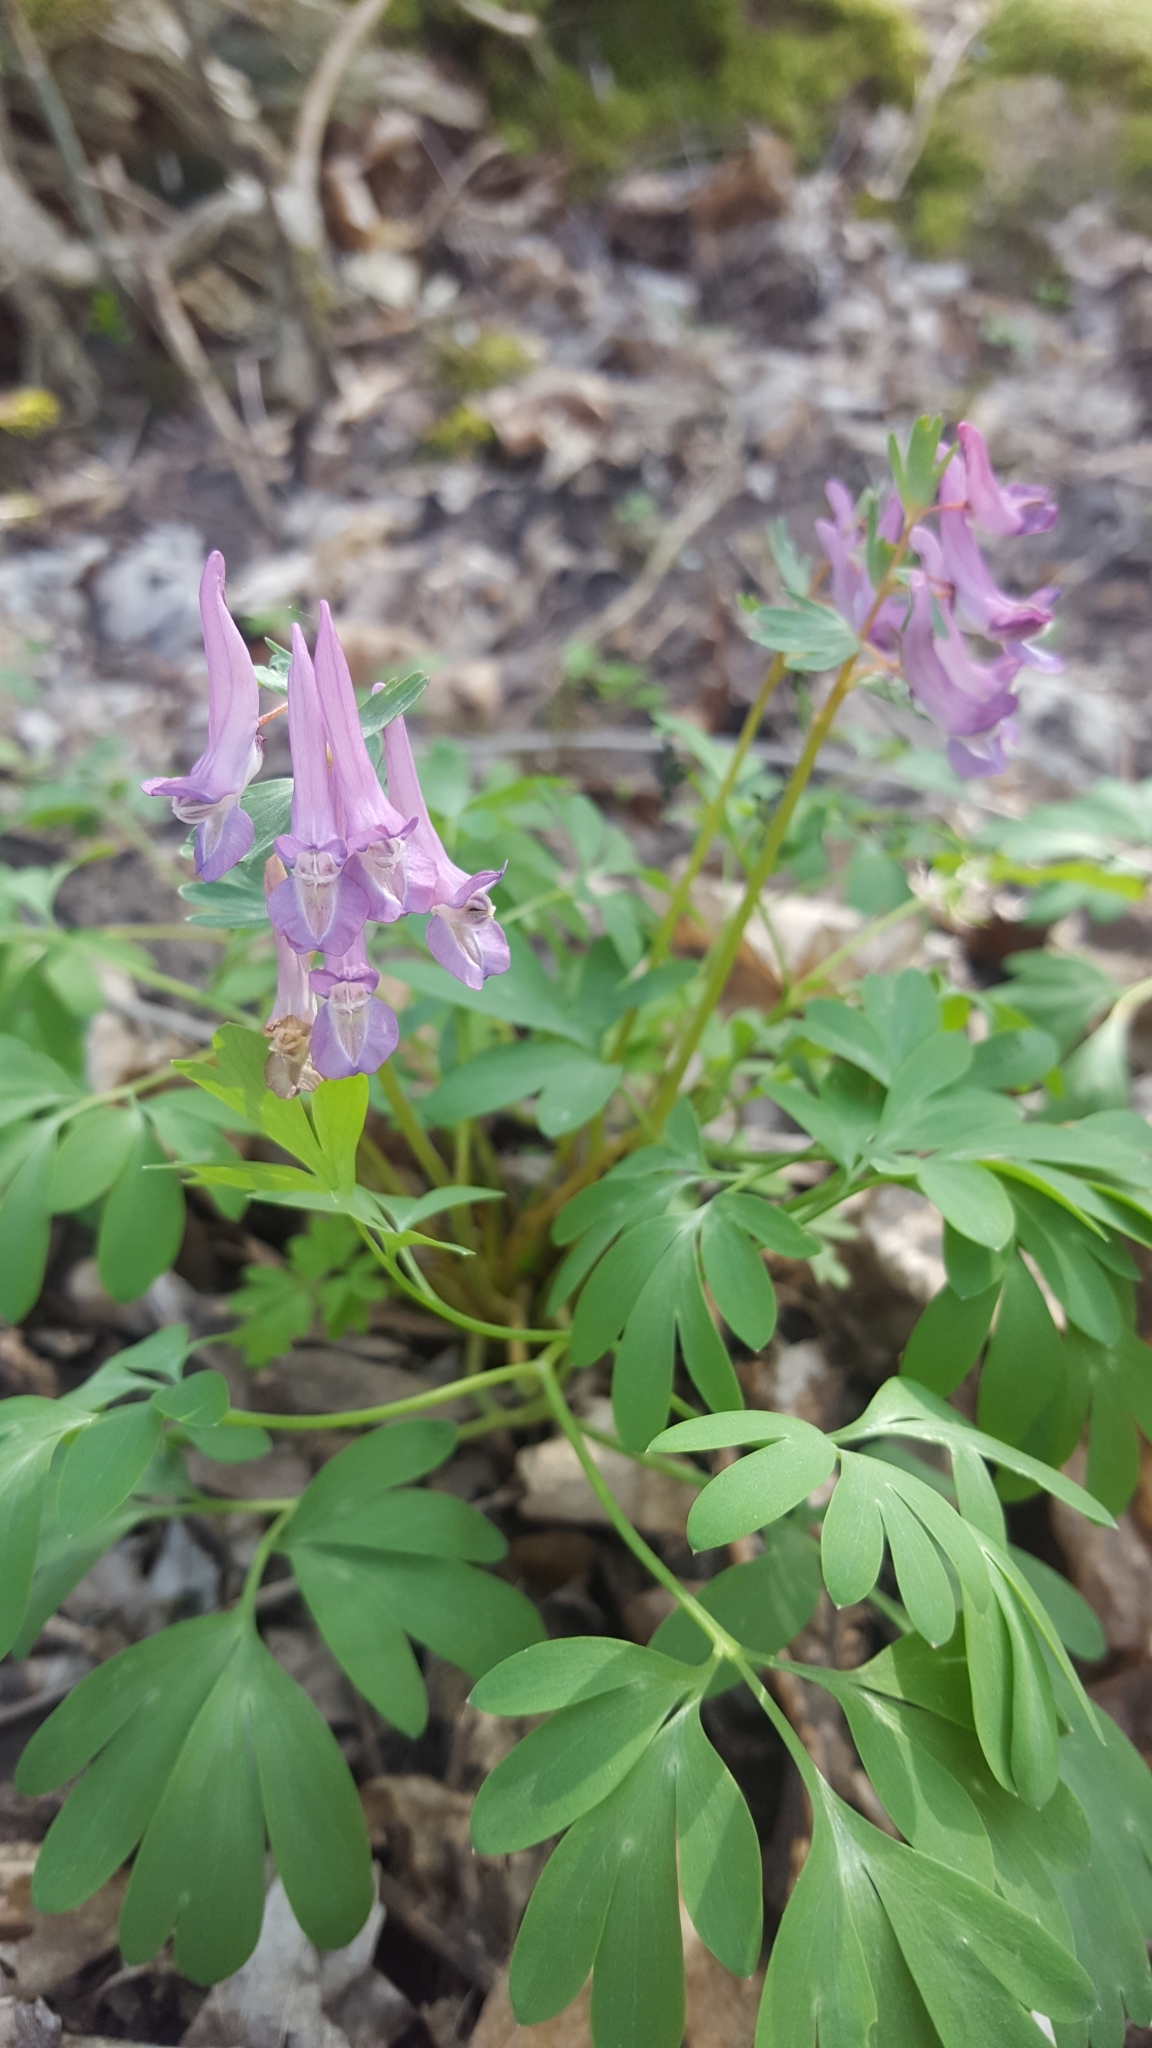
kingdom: Plantae
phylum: Tracheophyta
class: Magnoliopsida
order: Ranunculales
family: Papaveraceae
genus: Corydalis
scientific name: Corydalis solida
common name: Bird-in-a-bush
